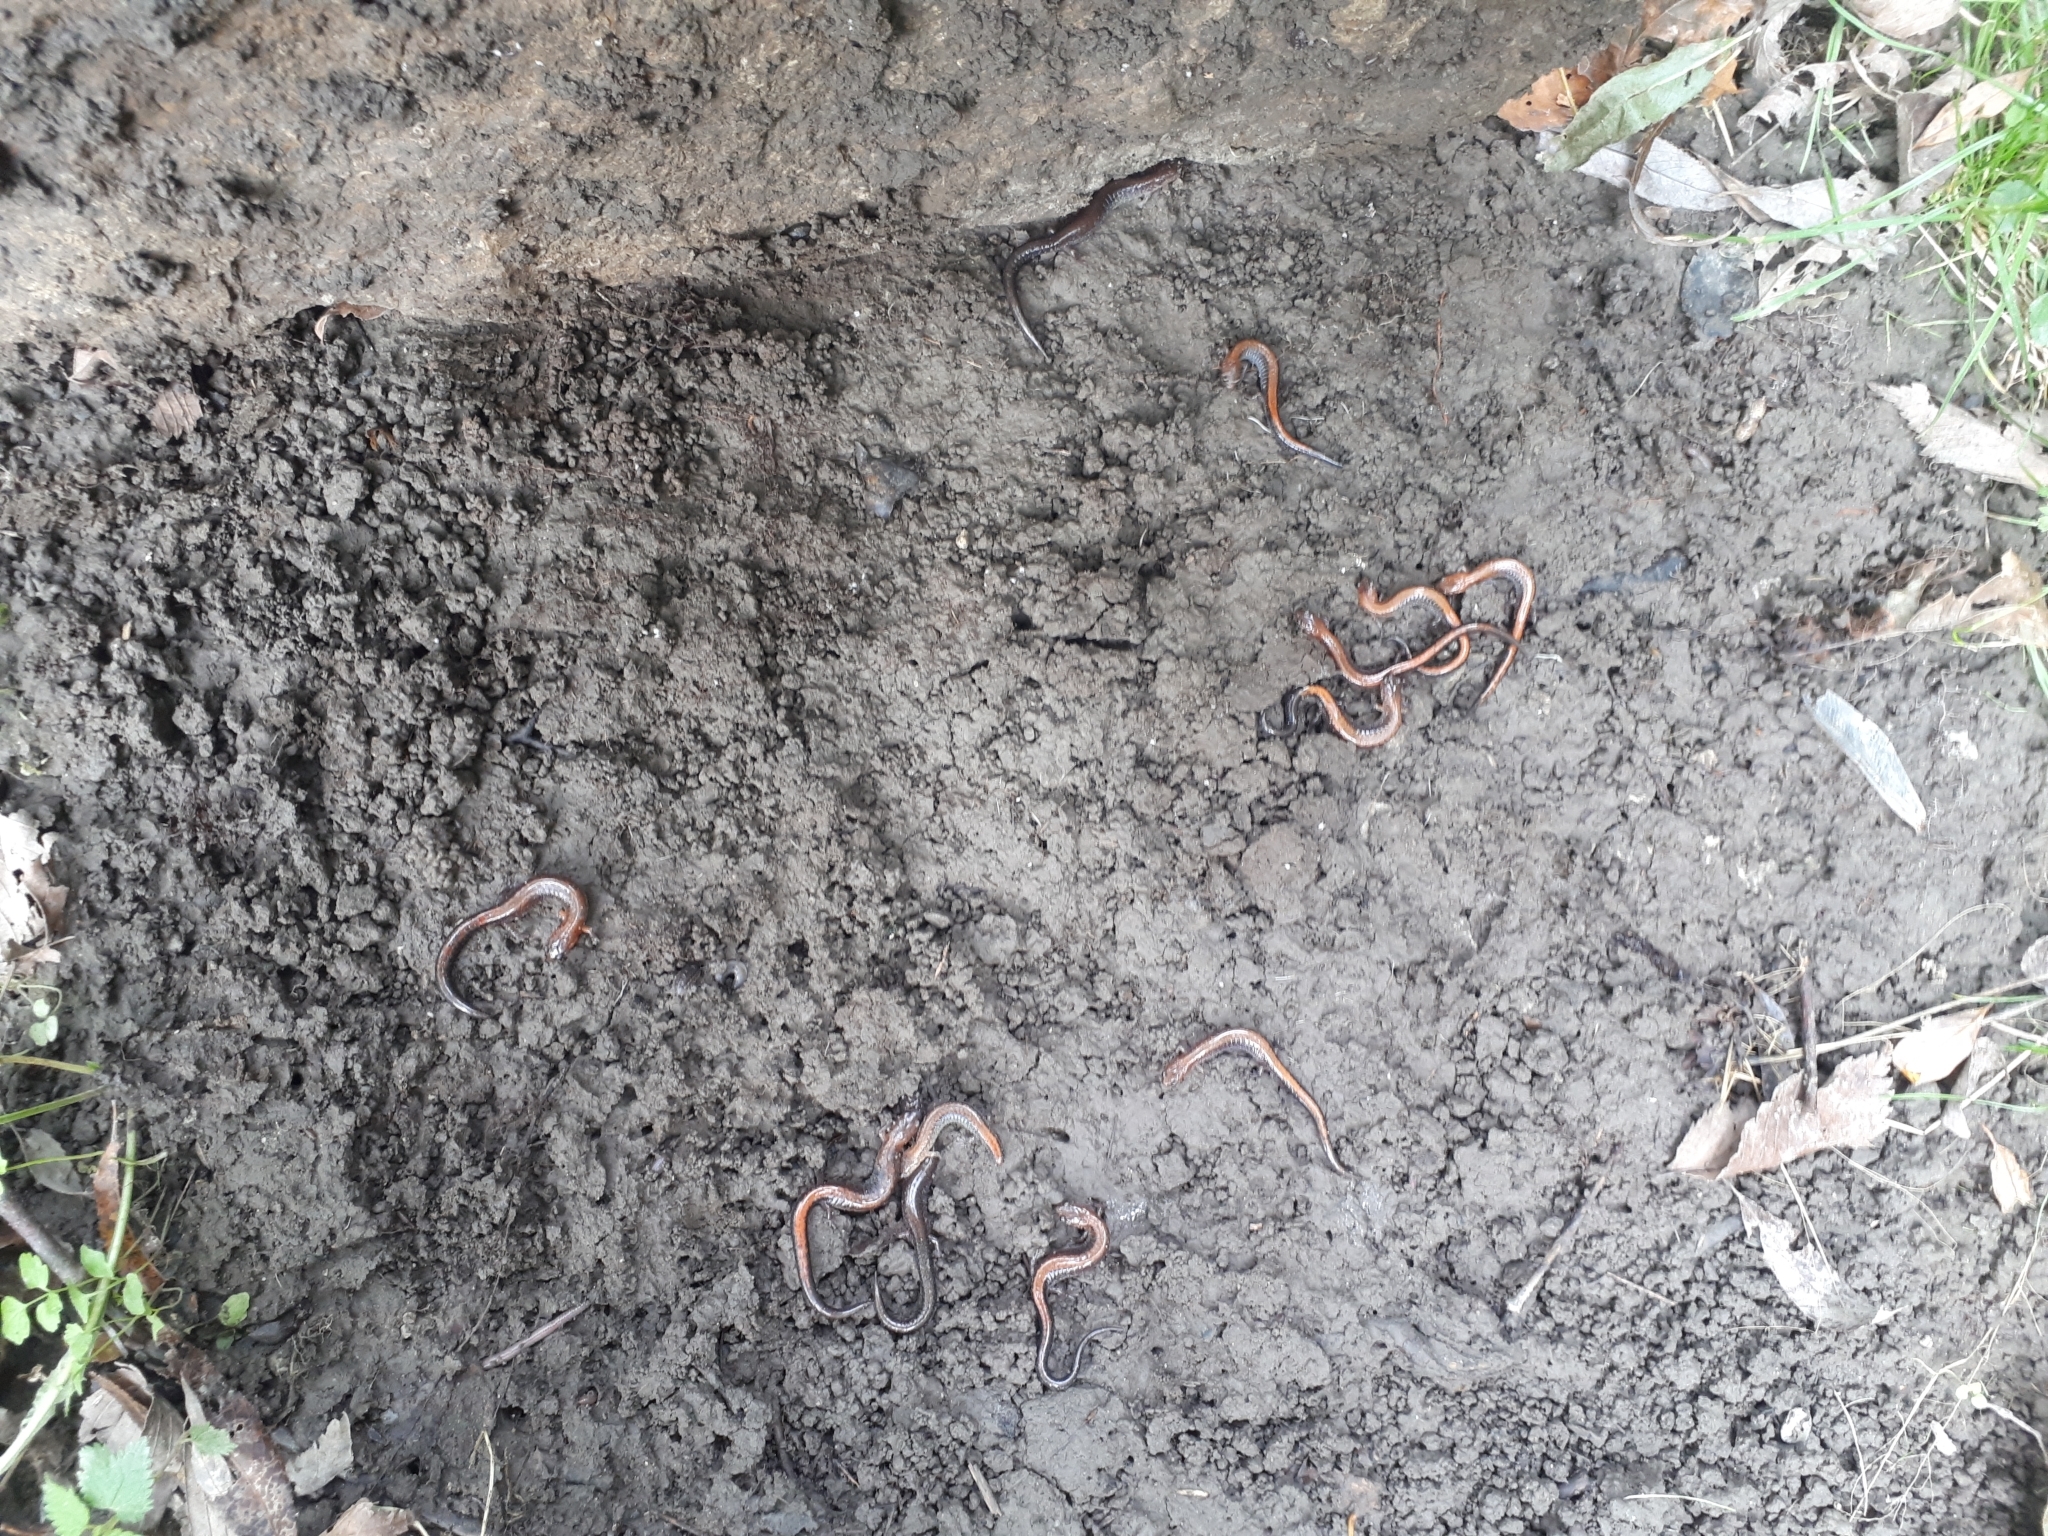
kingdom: Animalia
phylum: Chordata
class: Amphibia
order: Caudata
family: Plethodontidae
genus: Plethodon
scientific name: Plethodon cinereus
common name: Redback salamander
